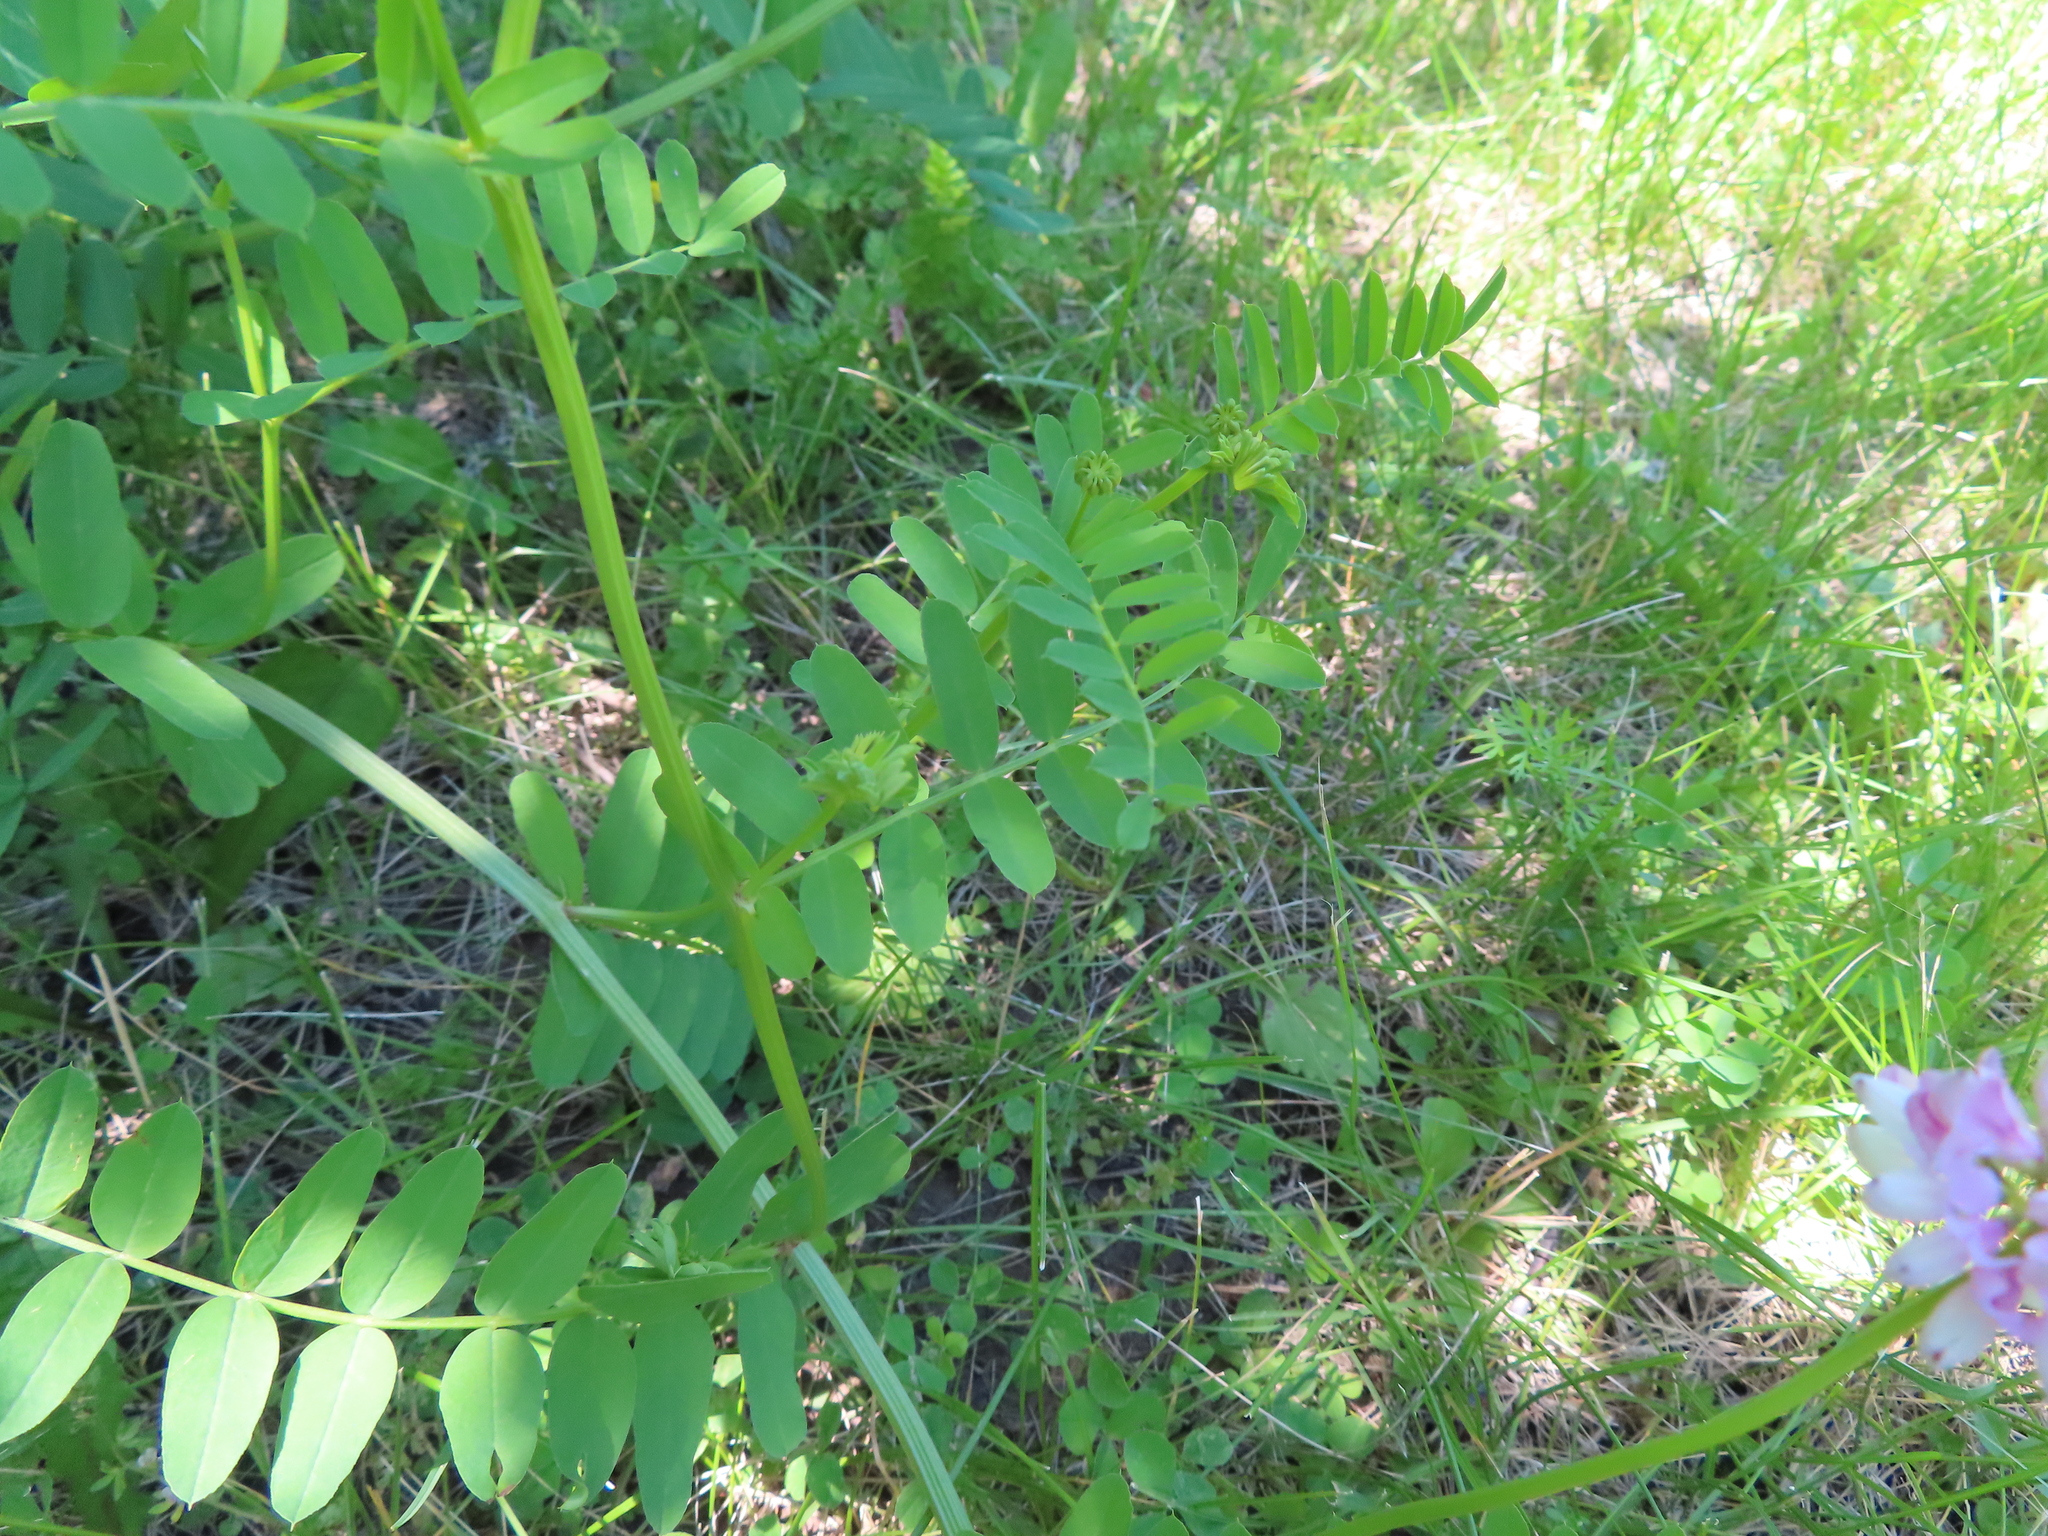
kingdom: Plantae
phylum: Tracheophyta
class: Magnoliopsida
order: Fabales
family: Fabaceae
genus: Coronilla
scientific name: Coronilla varia
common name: Crownvetch
